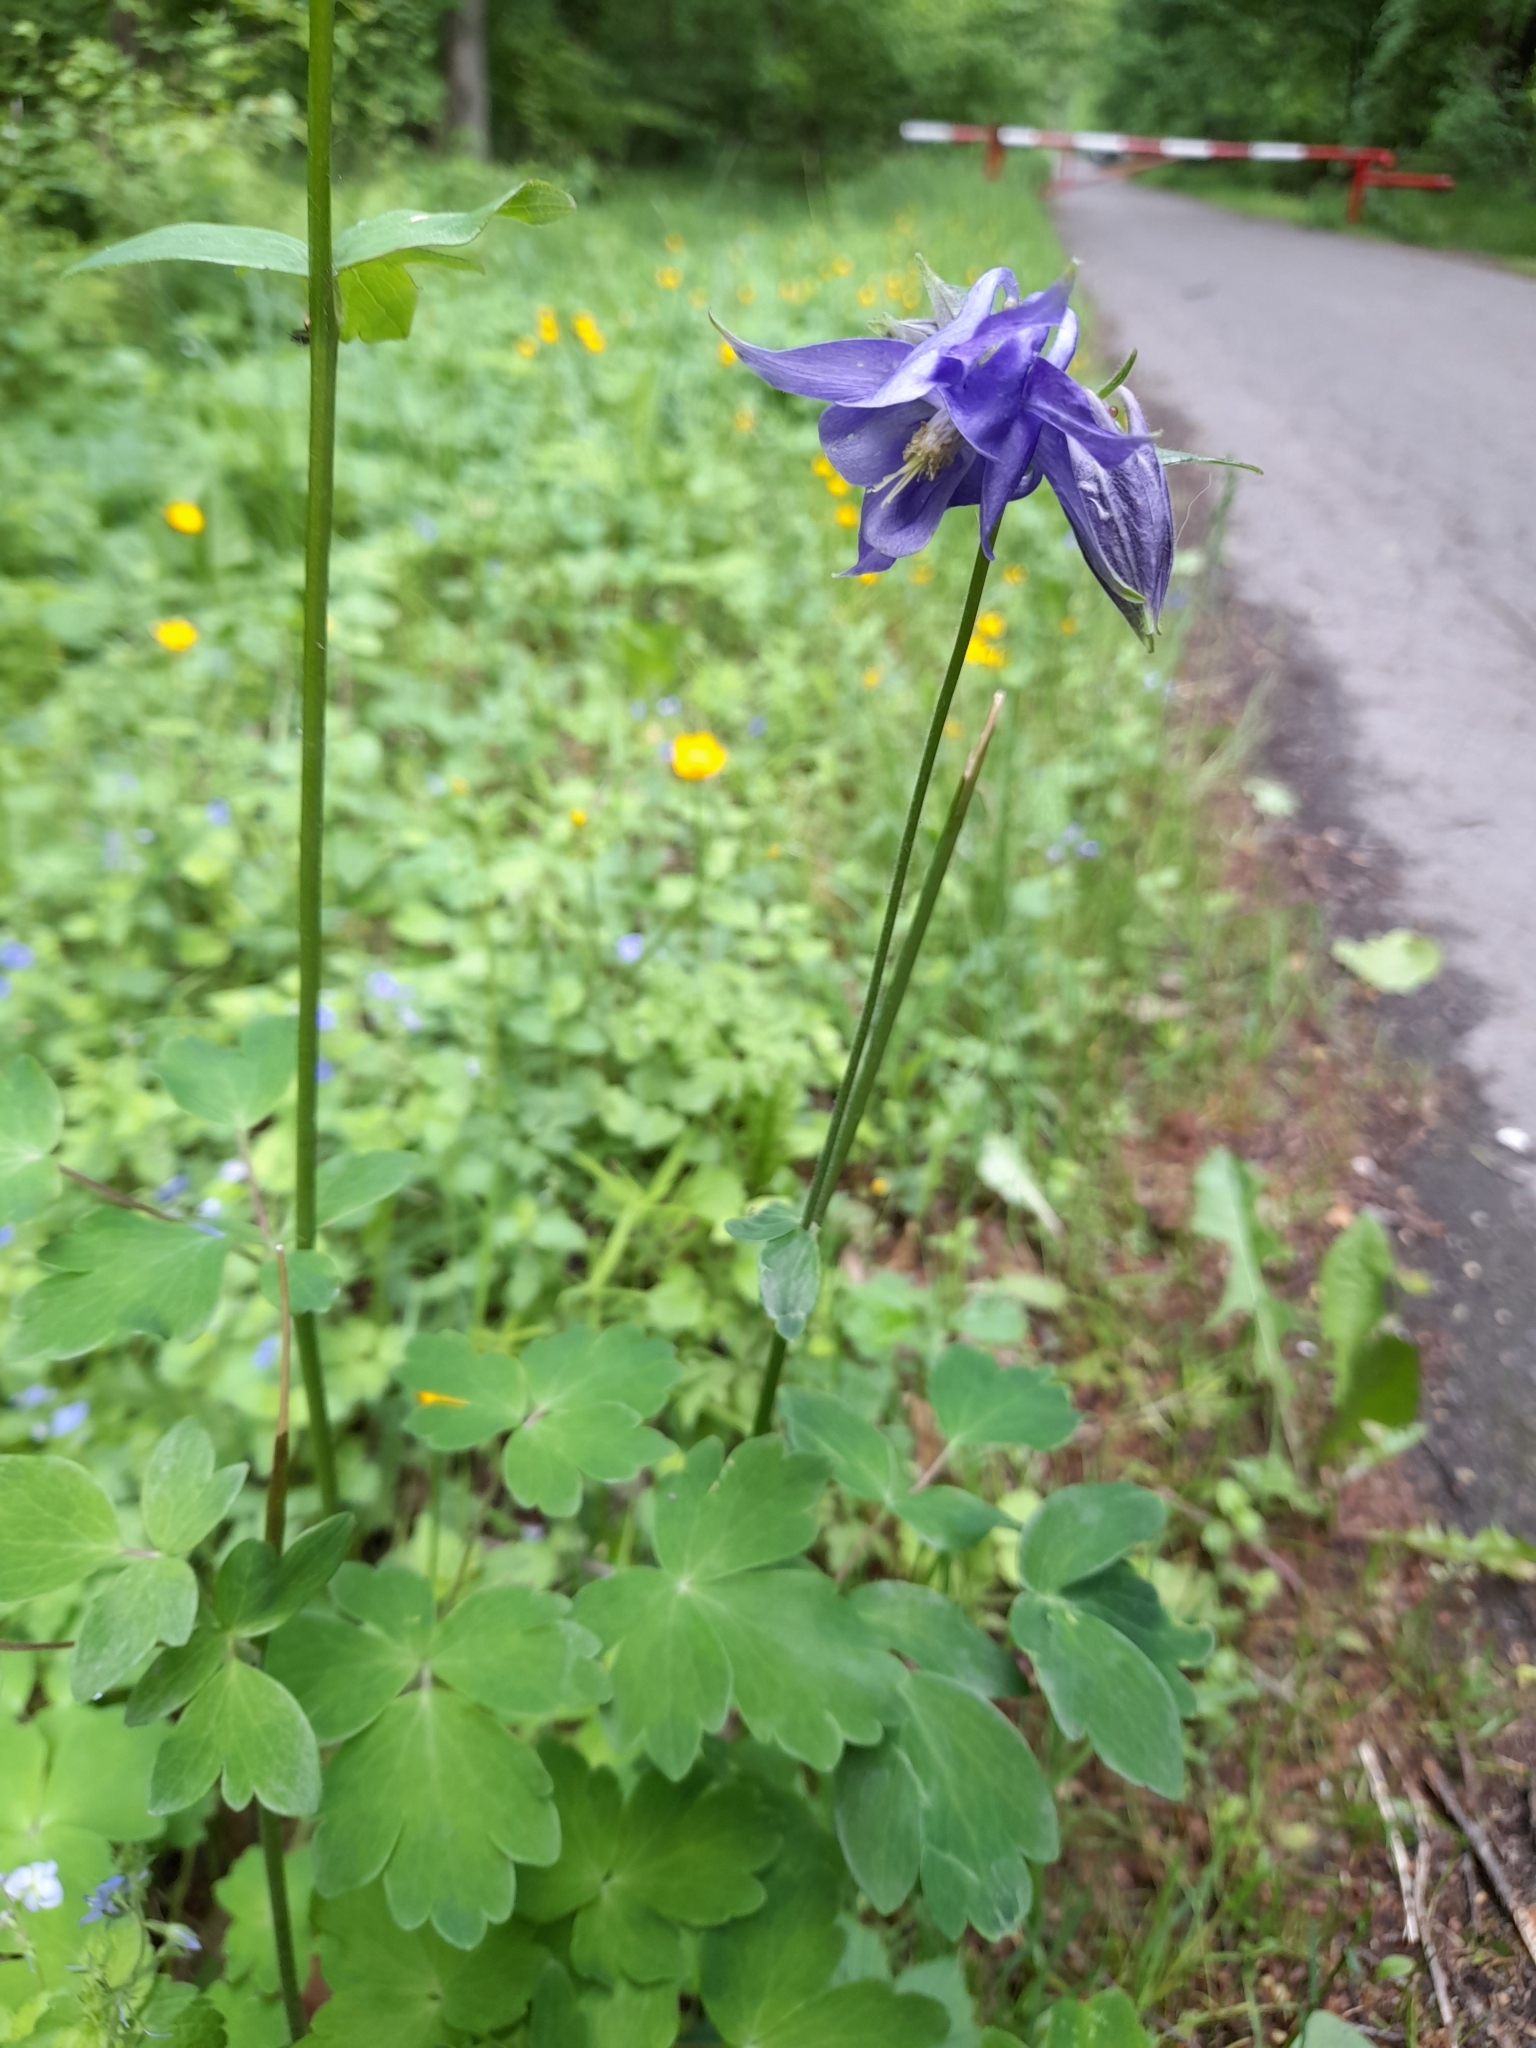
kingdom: Plantae
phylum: Tracheophyta
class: Magnoliopsida
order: Ranunculales
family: Ranunculaceae
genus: Aquilegia
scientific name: Aquilegia vulgaris
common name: Columbine
